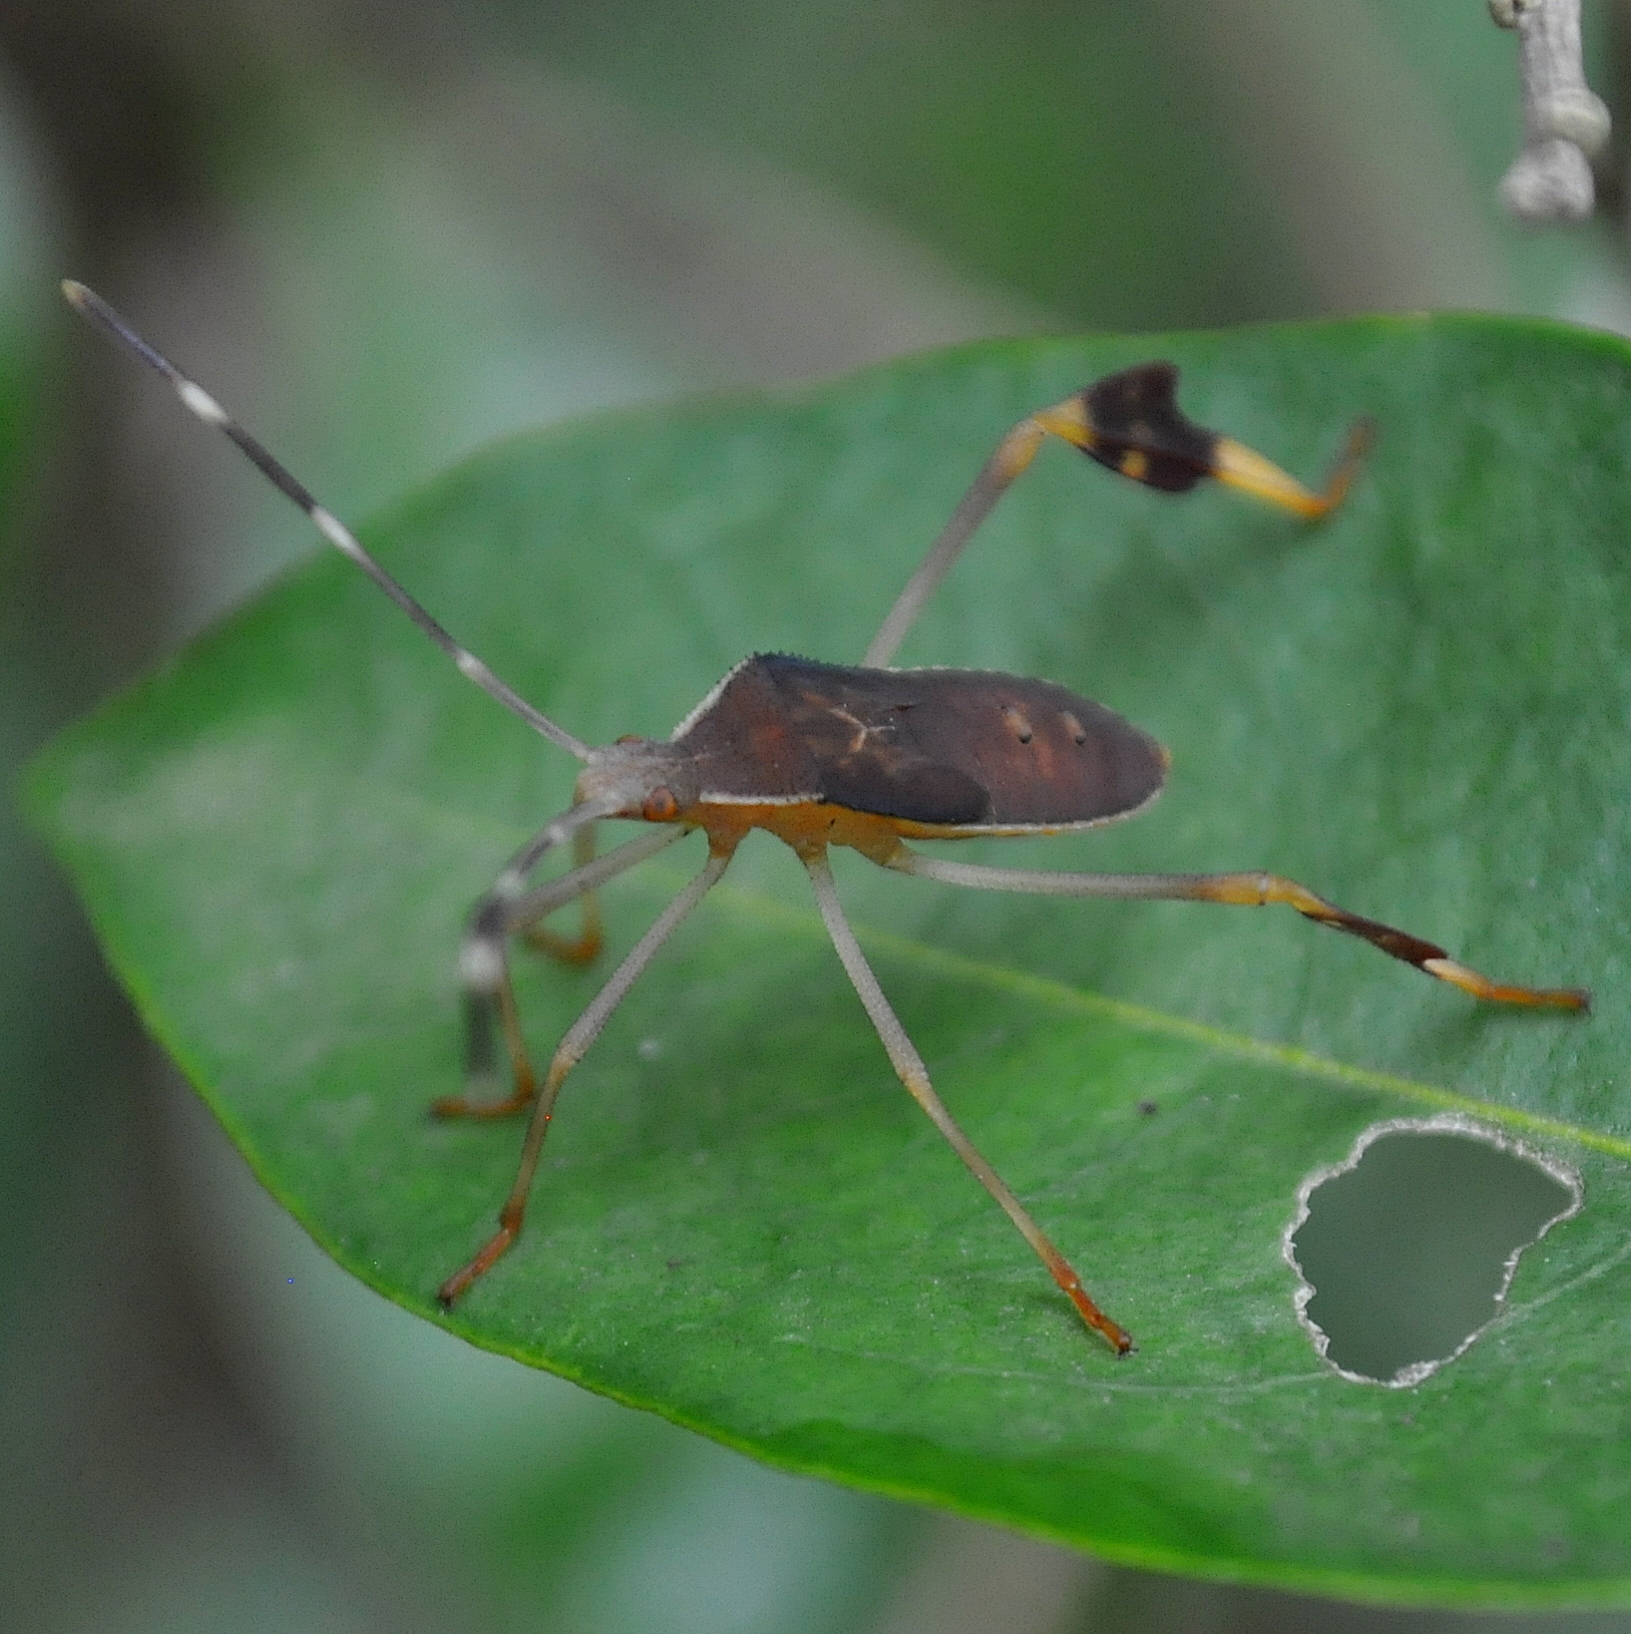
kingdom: Animalia
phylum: Arthropoda
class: Insecta
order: Hemiptera
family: Coreidae
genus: Anisoscelis
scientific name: Anisoscelis marginellus
